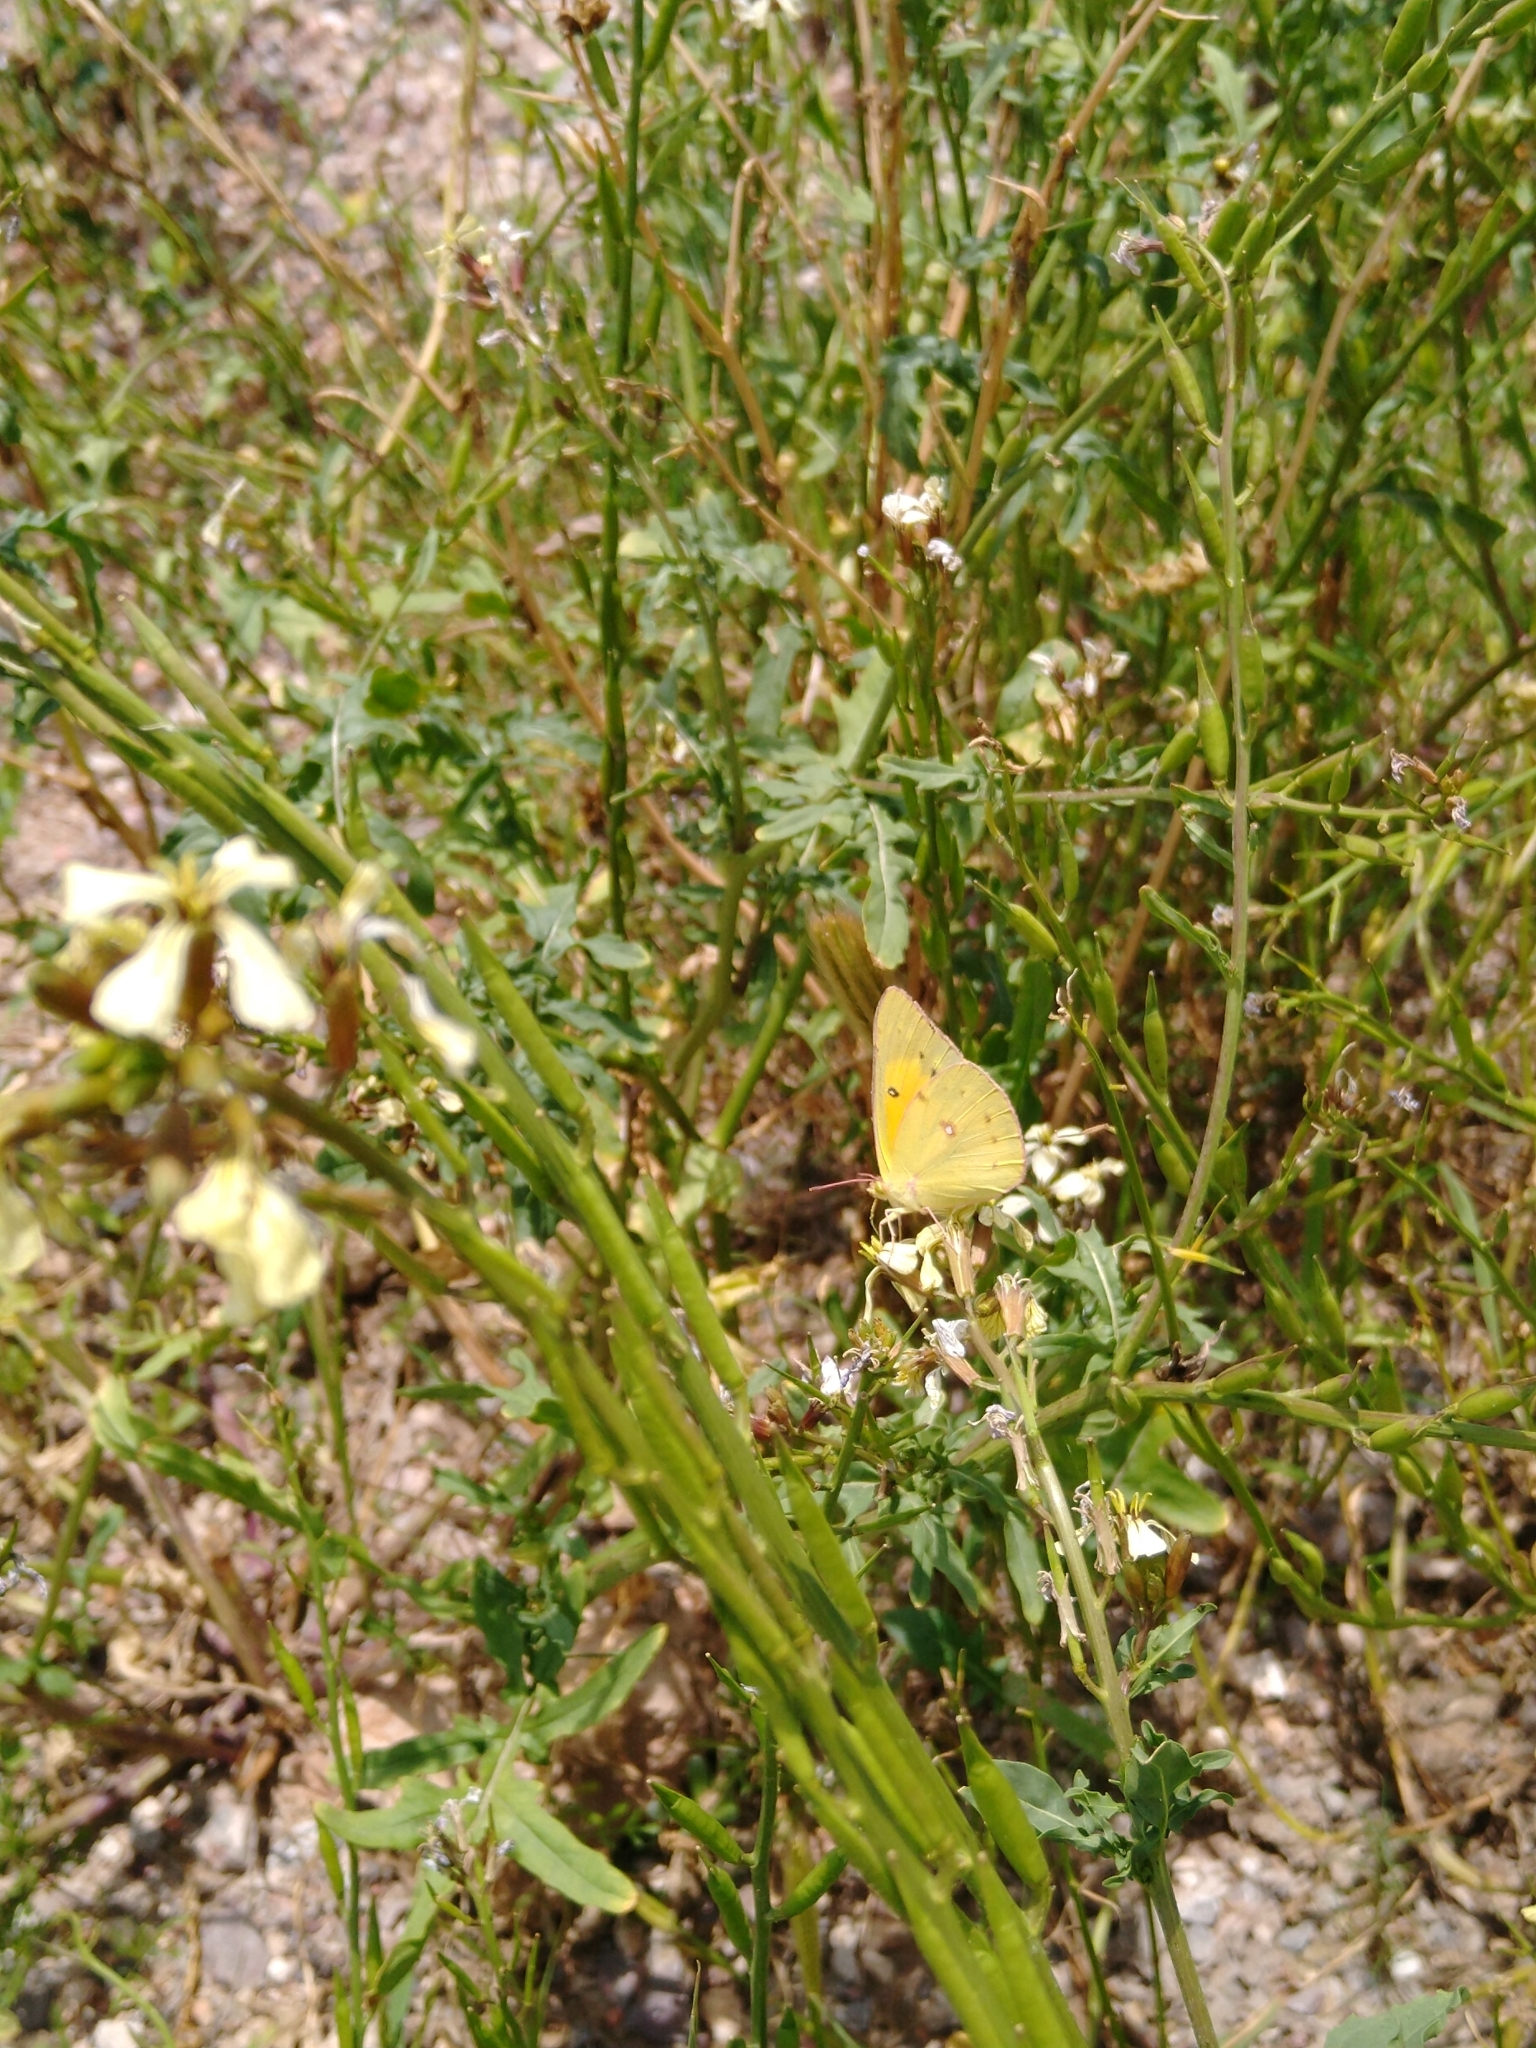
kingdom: Animalia
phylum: Arthropoda
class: Insecta
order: Lepidoptera
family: Pieridae
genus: Colias
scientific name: Colias eurytheme
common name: Alfalfa butterfly
